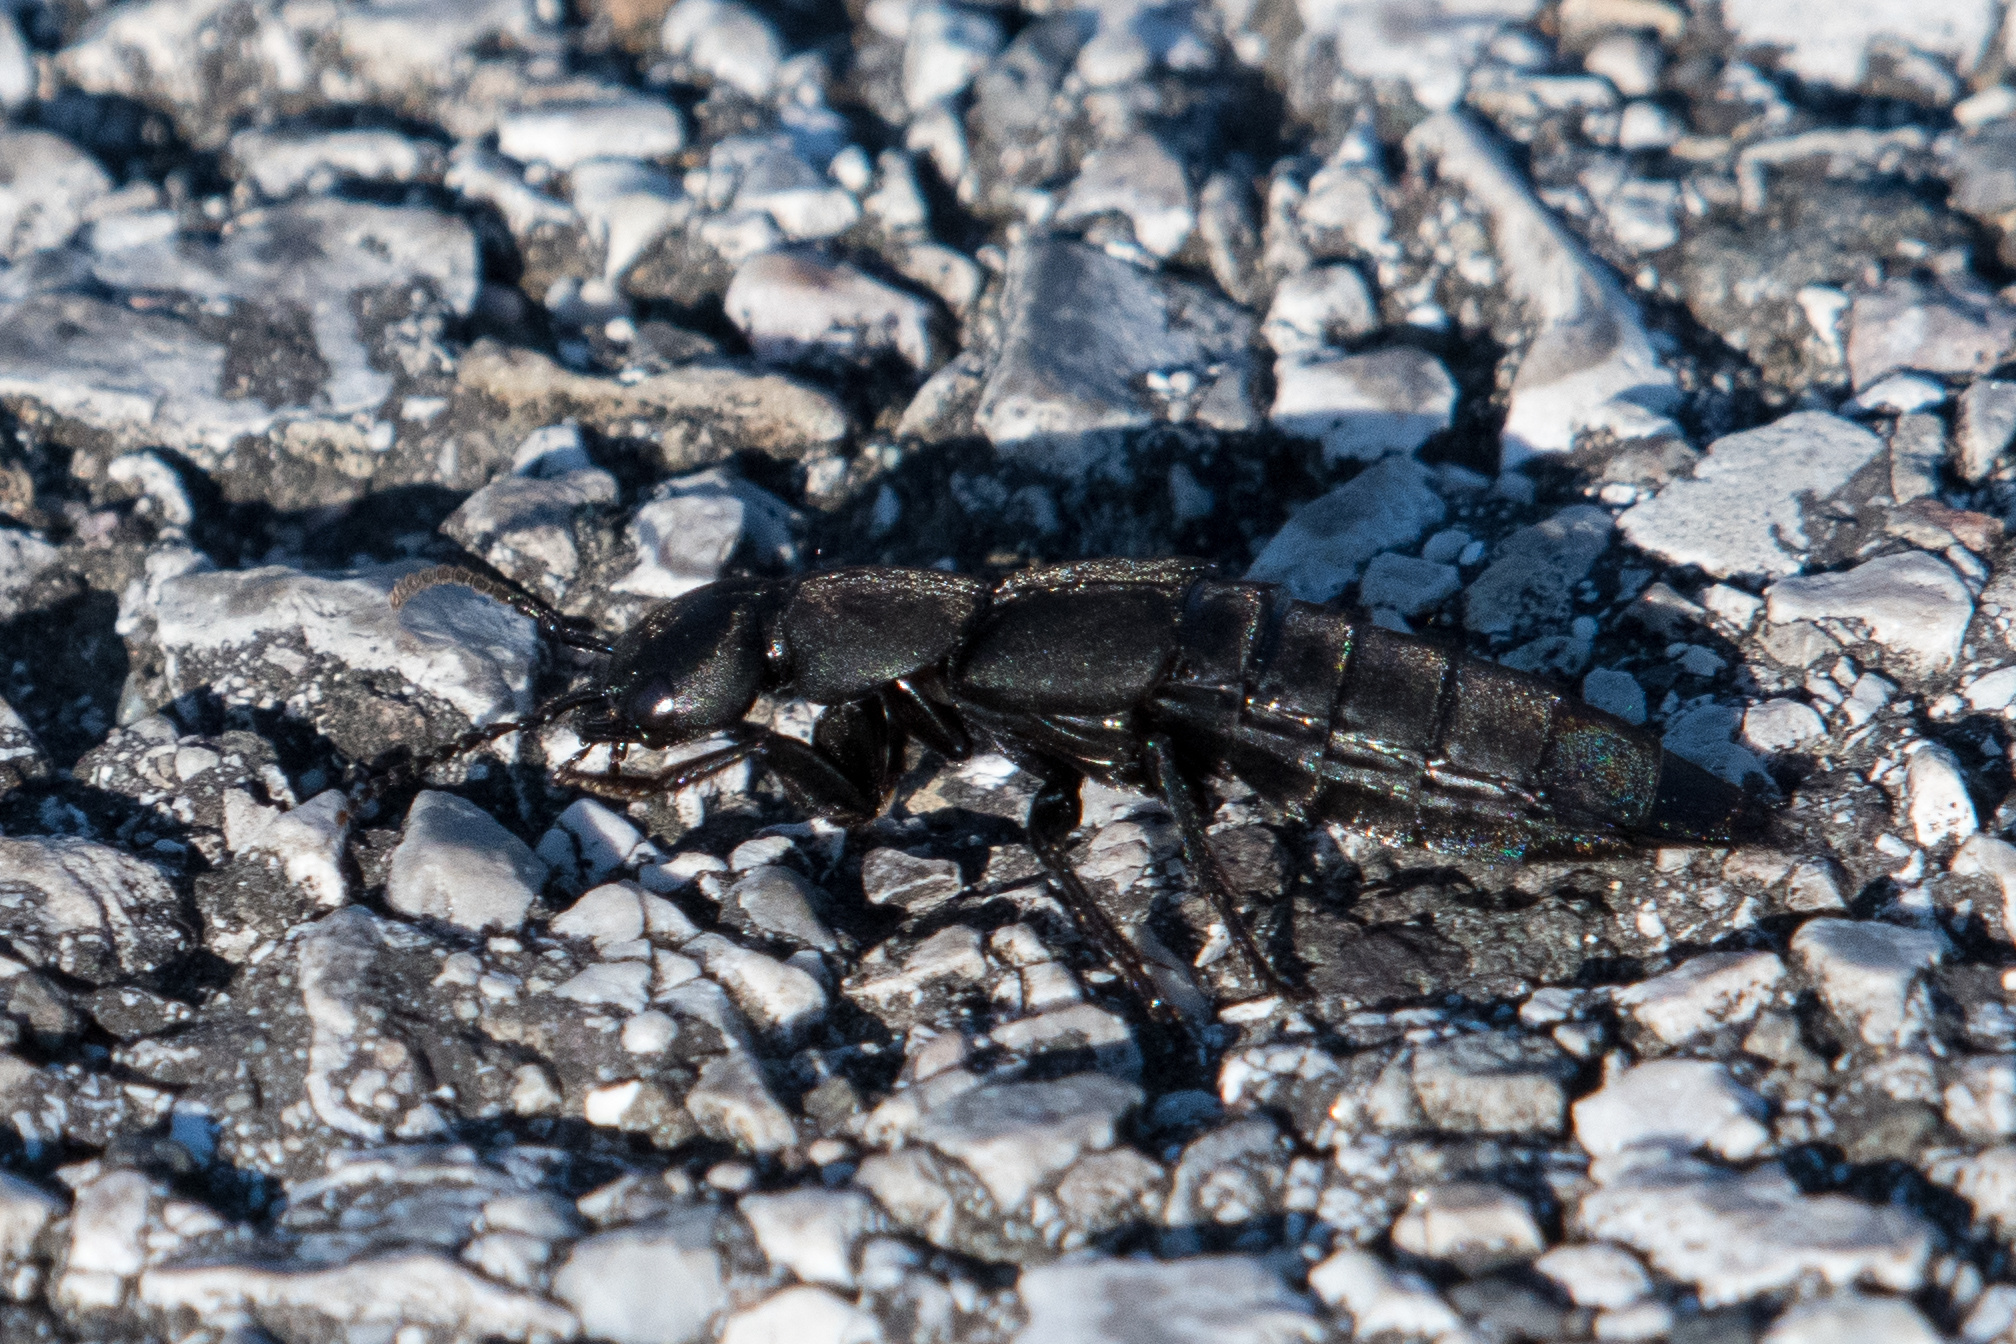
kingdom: Animalia
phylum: Arthropoda
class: Insecta
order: Coleoptera
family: Staphylinidae
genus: Ocypus
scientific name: Ocypus olens
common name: Devil's coach-horse
